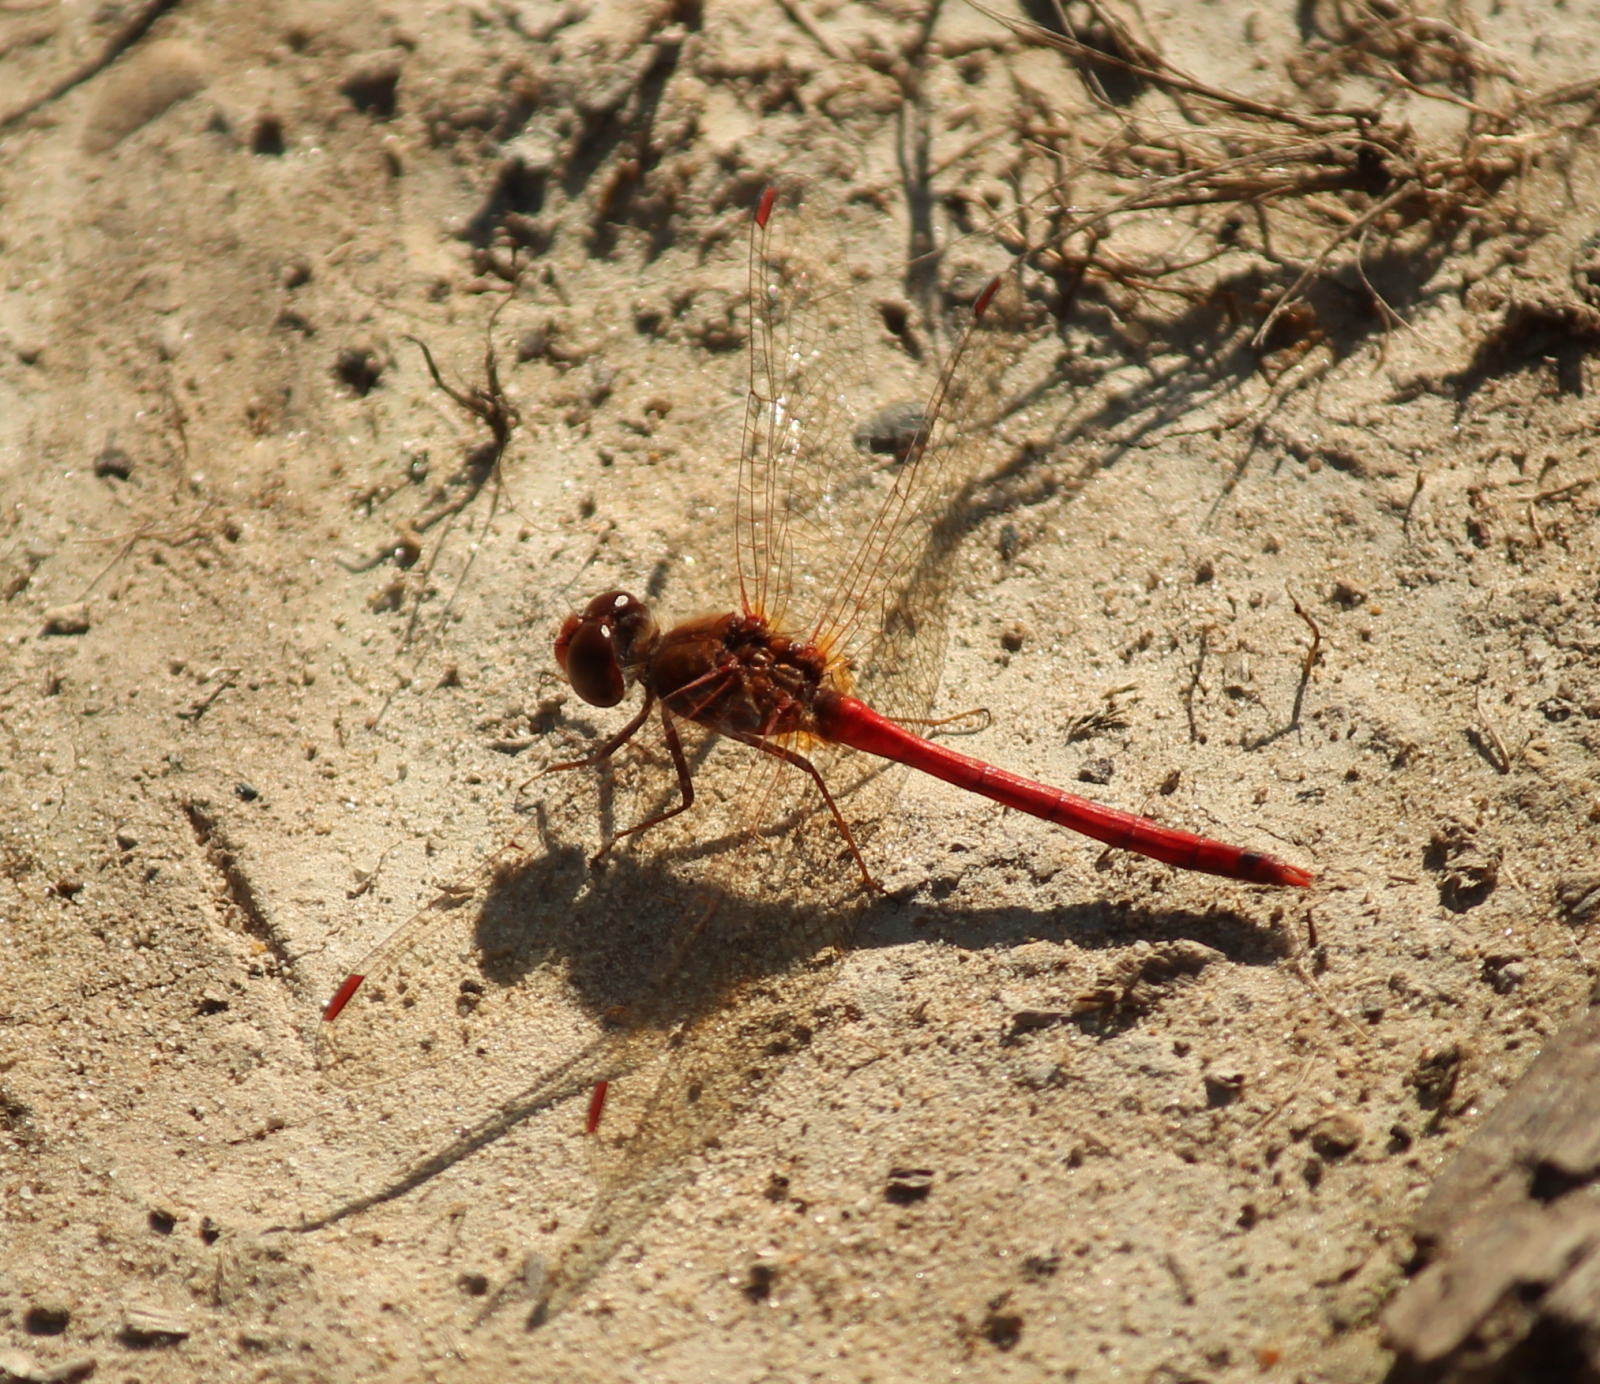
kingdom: Animalia
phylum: Arthropoda
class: Insecta
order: Odonata
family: Libellulidae
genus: Sympetrum
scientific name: Sympetrum vicinum
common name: Autumn meadowhawk
